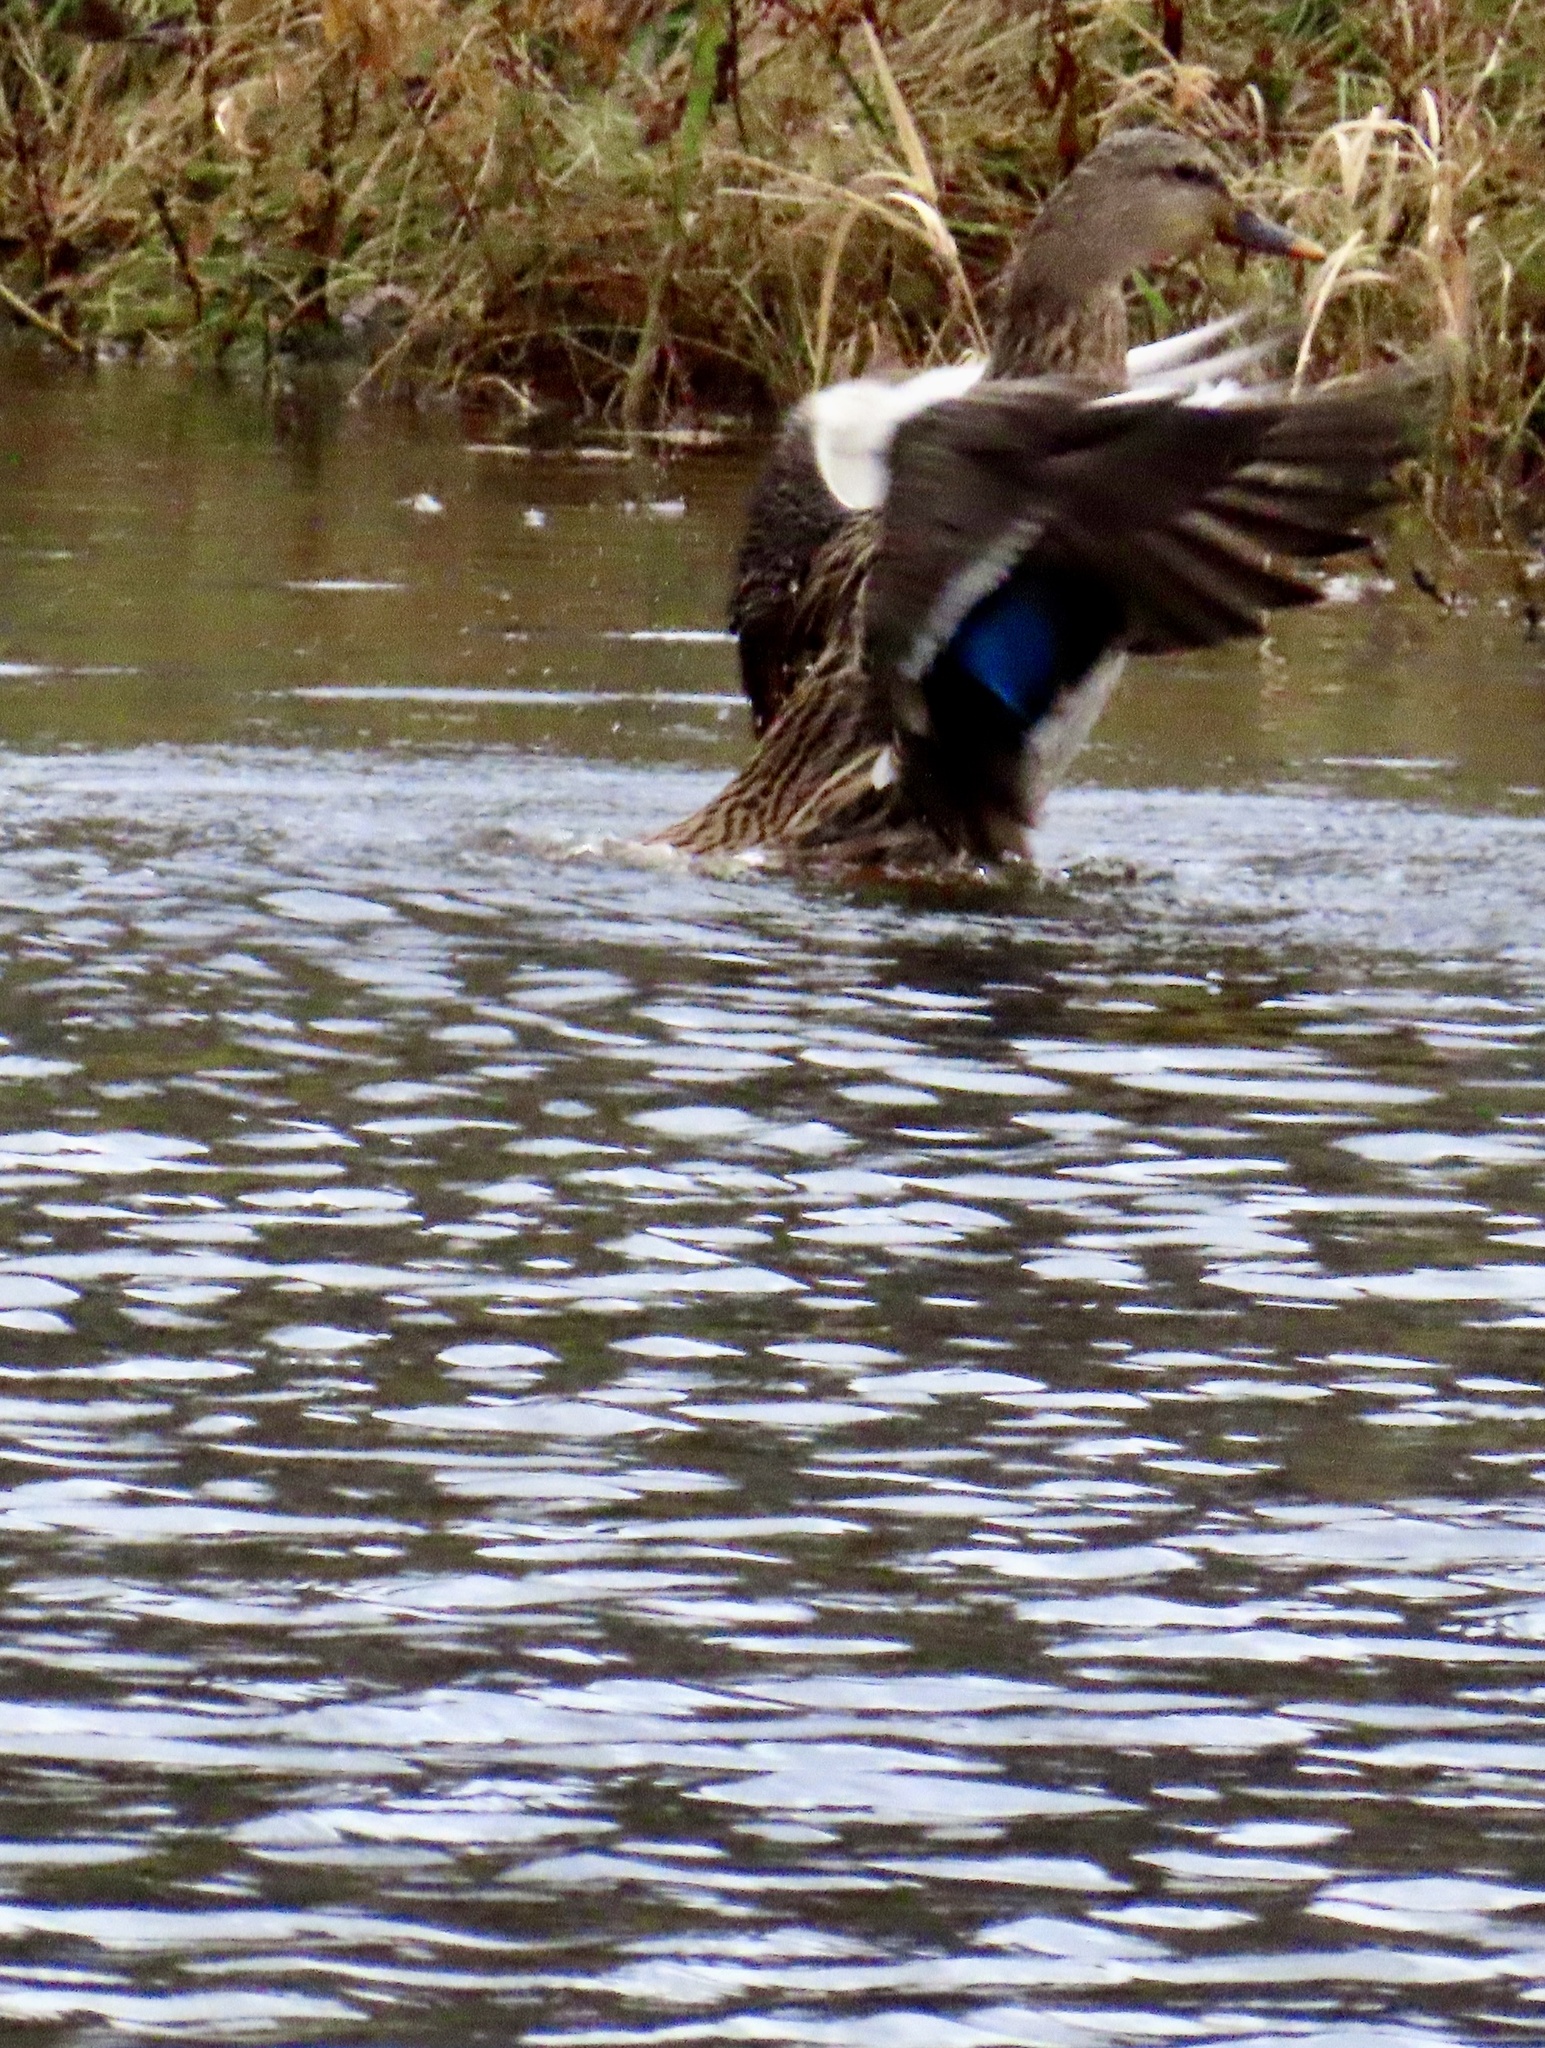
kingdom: Animalia
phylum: Chordata
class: Aves
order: Anseriformes
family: Anatidae
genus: Anas
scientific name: Anas platyrhynchos
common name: Mallard
